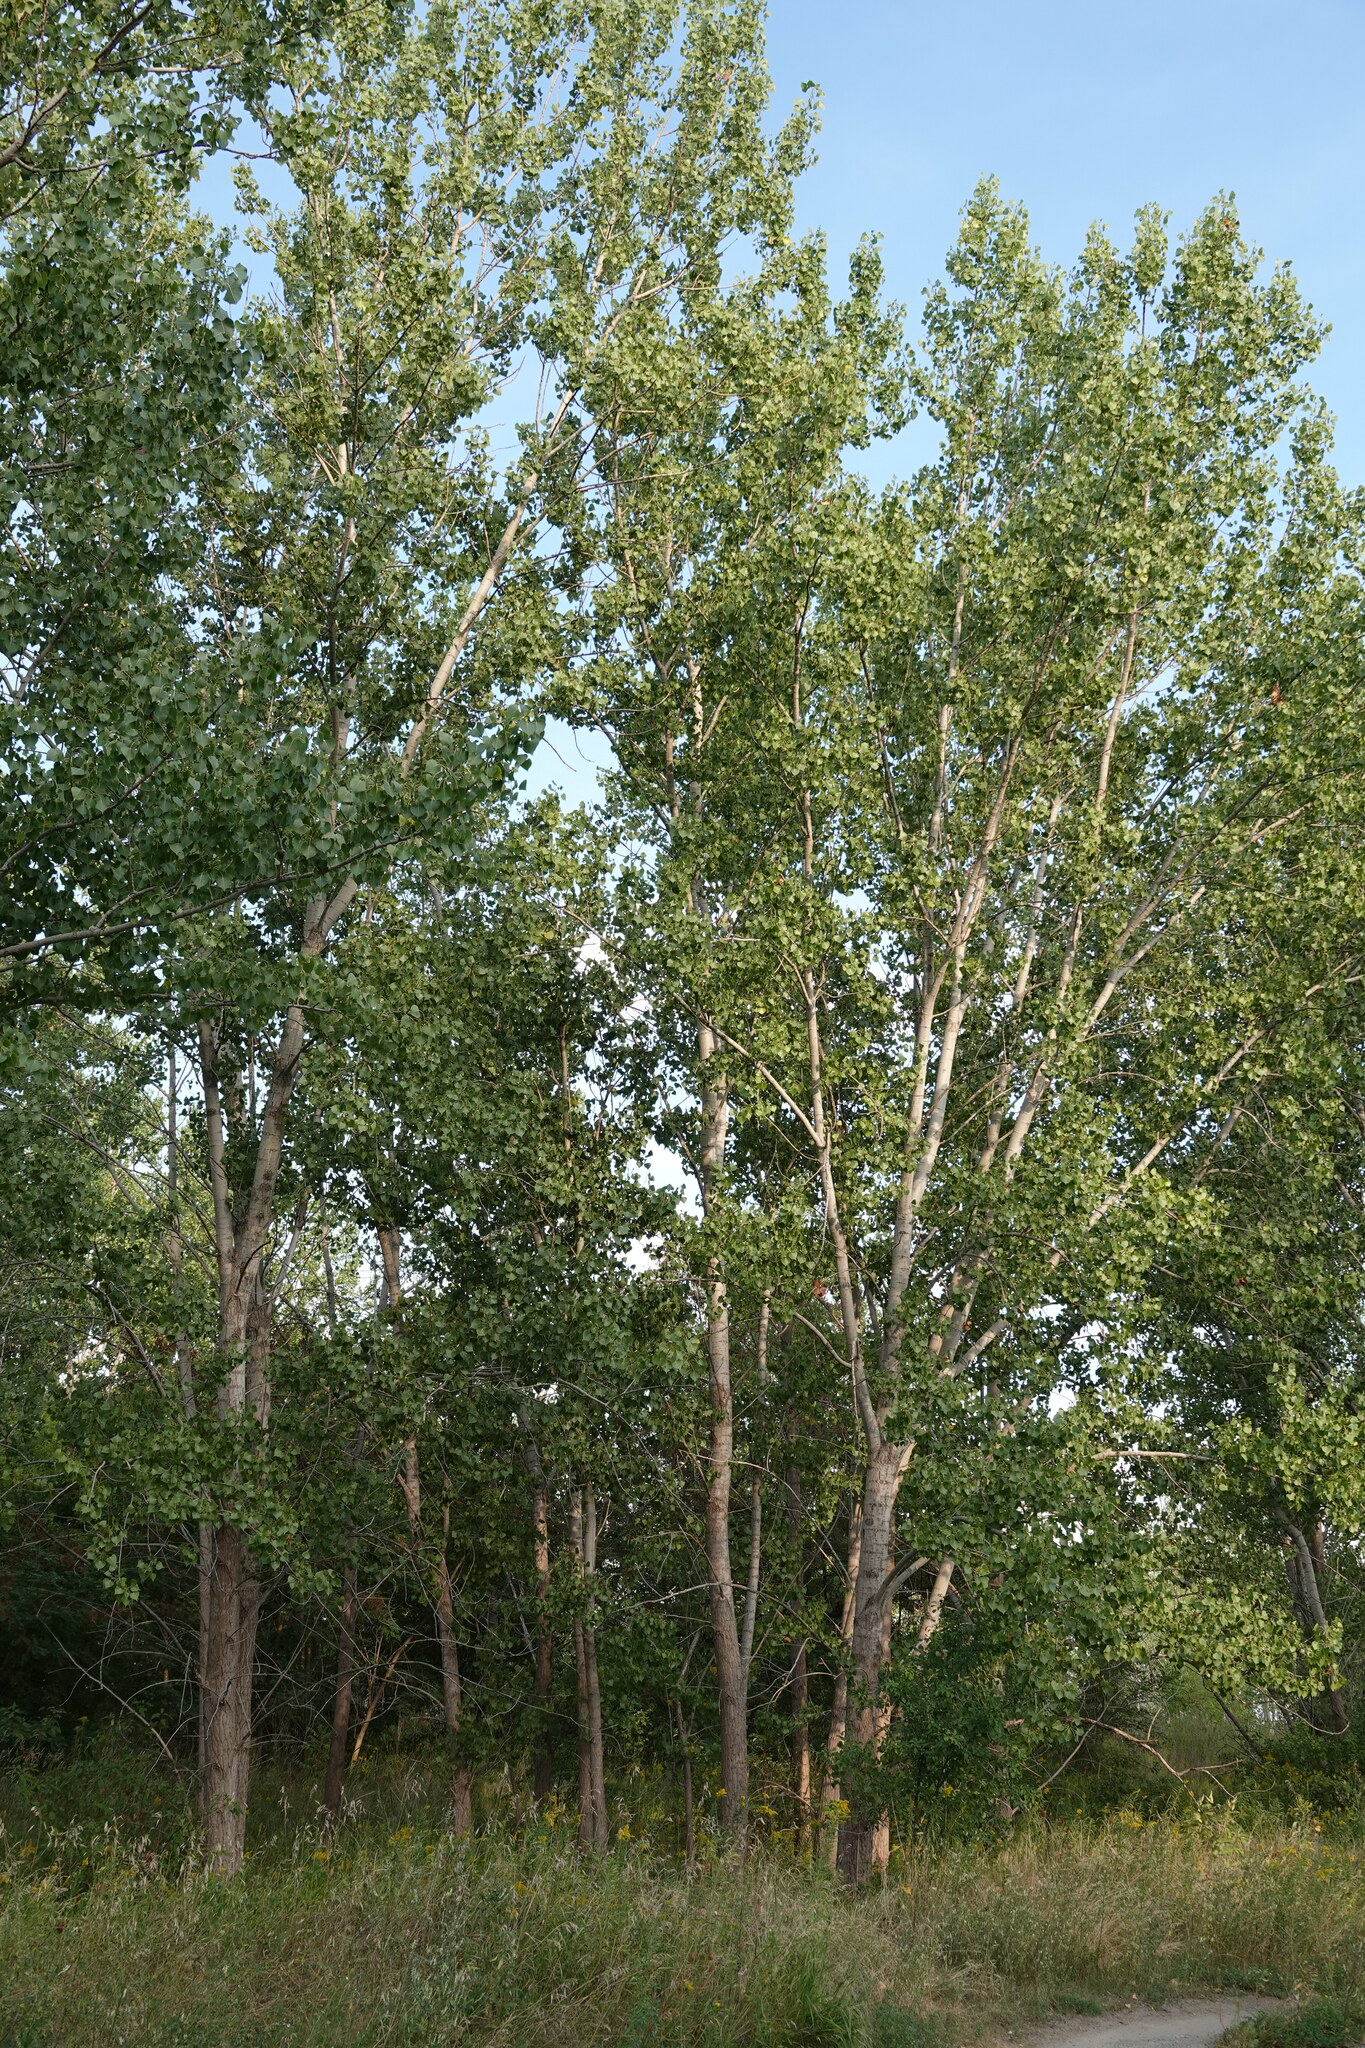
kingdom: Plantae
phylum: Tracheophyta
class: Magnoliopsida
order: Malpighiales
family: Salicaceae
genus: Populus
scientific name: Populus tremuloides
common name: Quaking aspen
